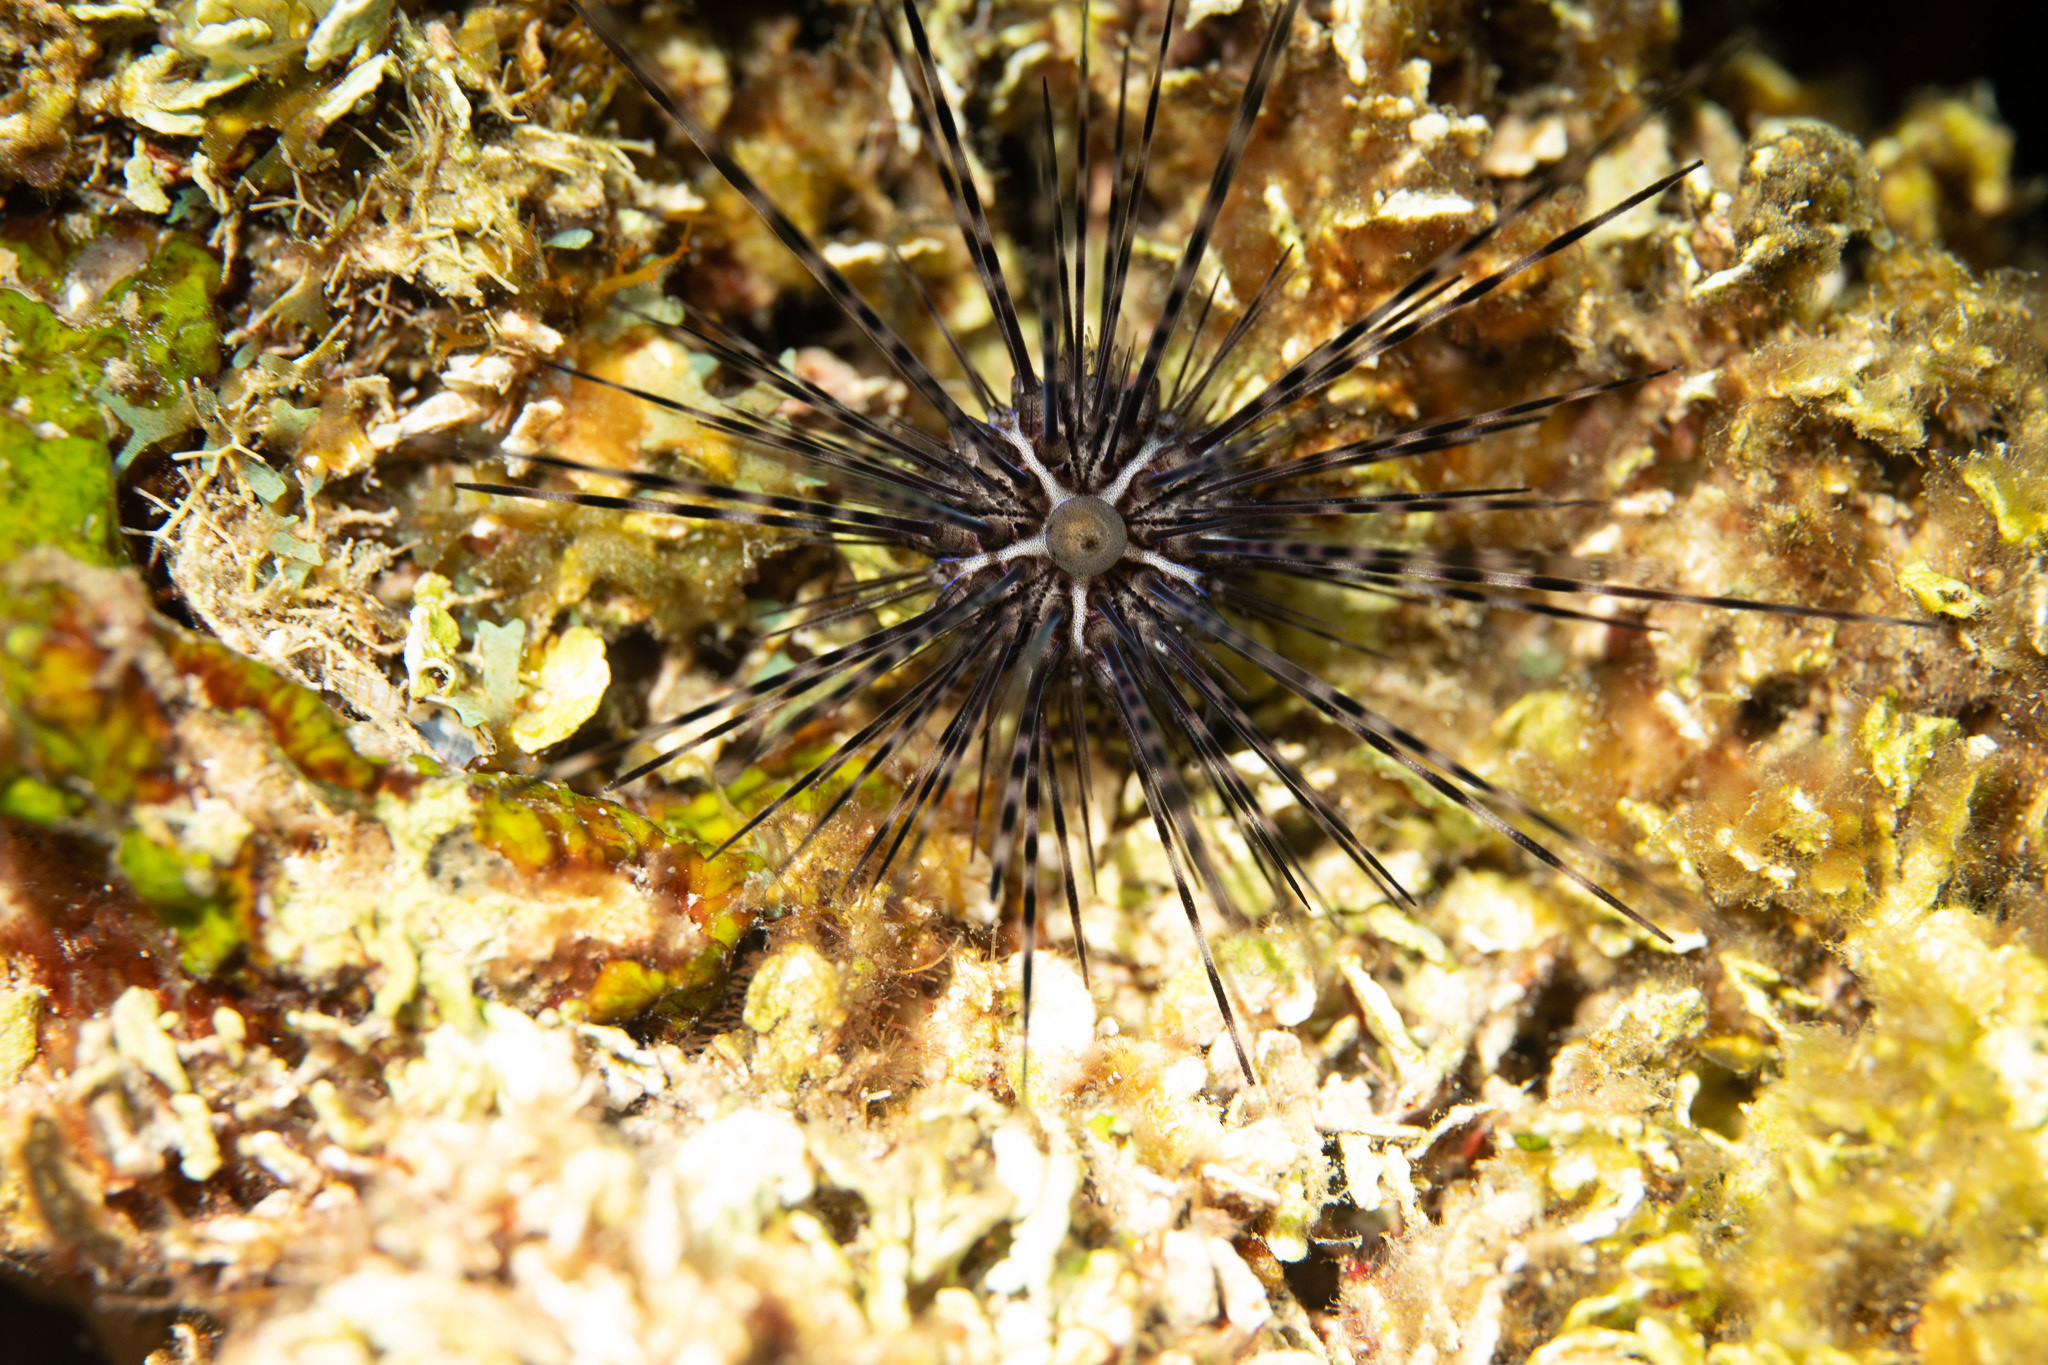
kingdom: Animalia
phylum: Echinodermata
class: Echinoidea
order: Diadematoida
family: Diadematidae
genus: Diadema
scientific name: Diadema antillarum
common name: Spiny urchin
